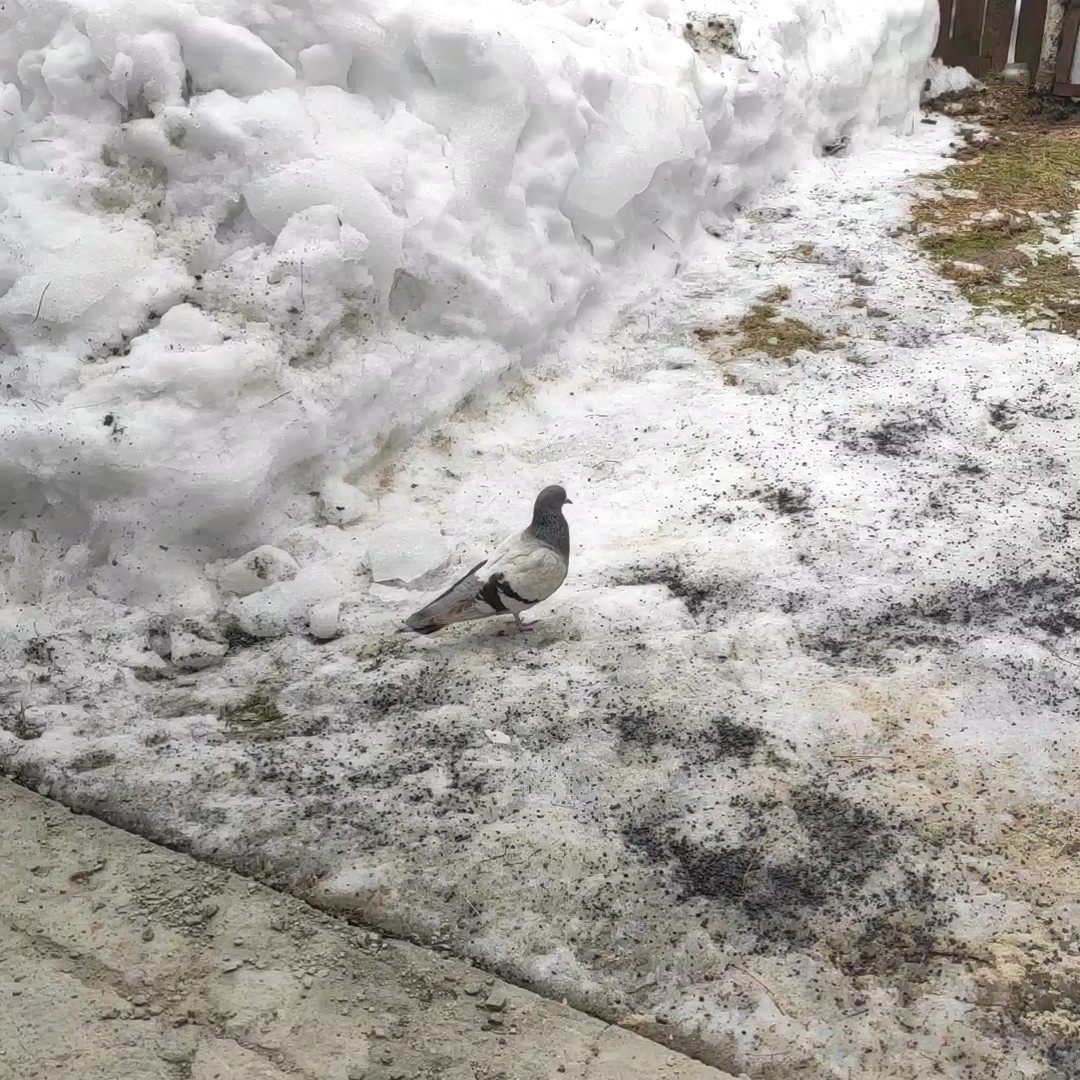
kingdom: Animalia
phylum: Chordata
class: Aves
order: Columbiformes
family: Columbidae
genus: Columba
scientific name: Columba livia
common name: Rock pigeon
